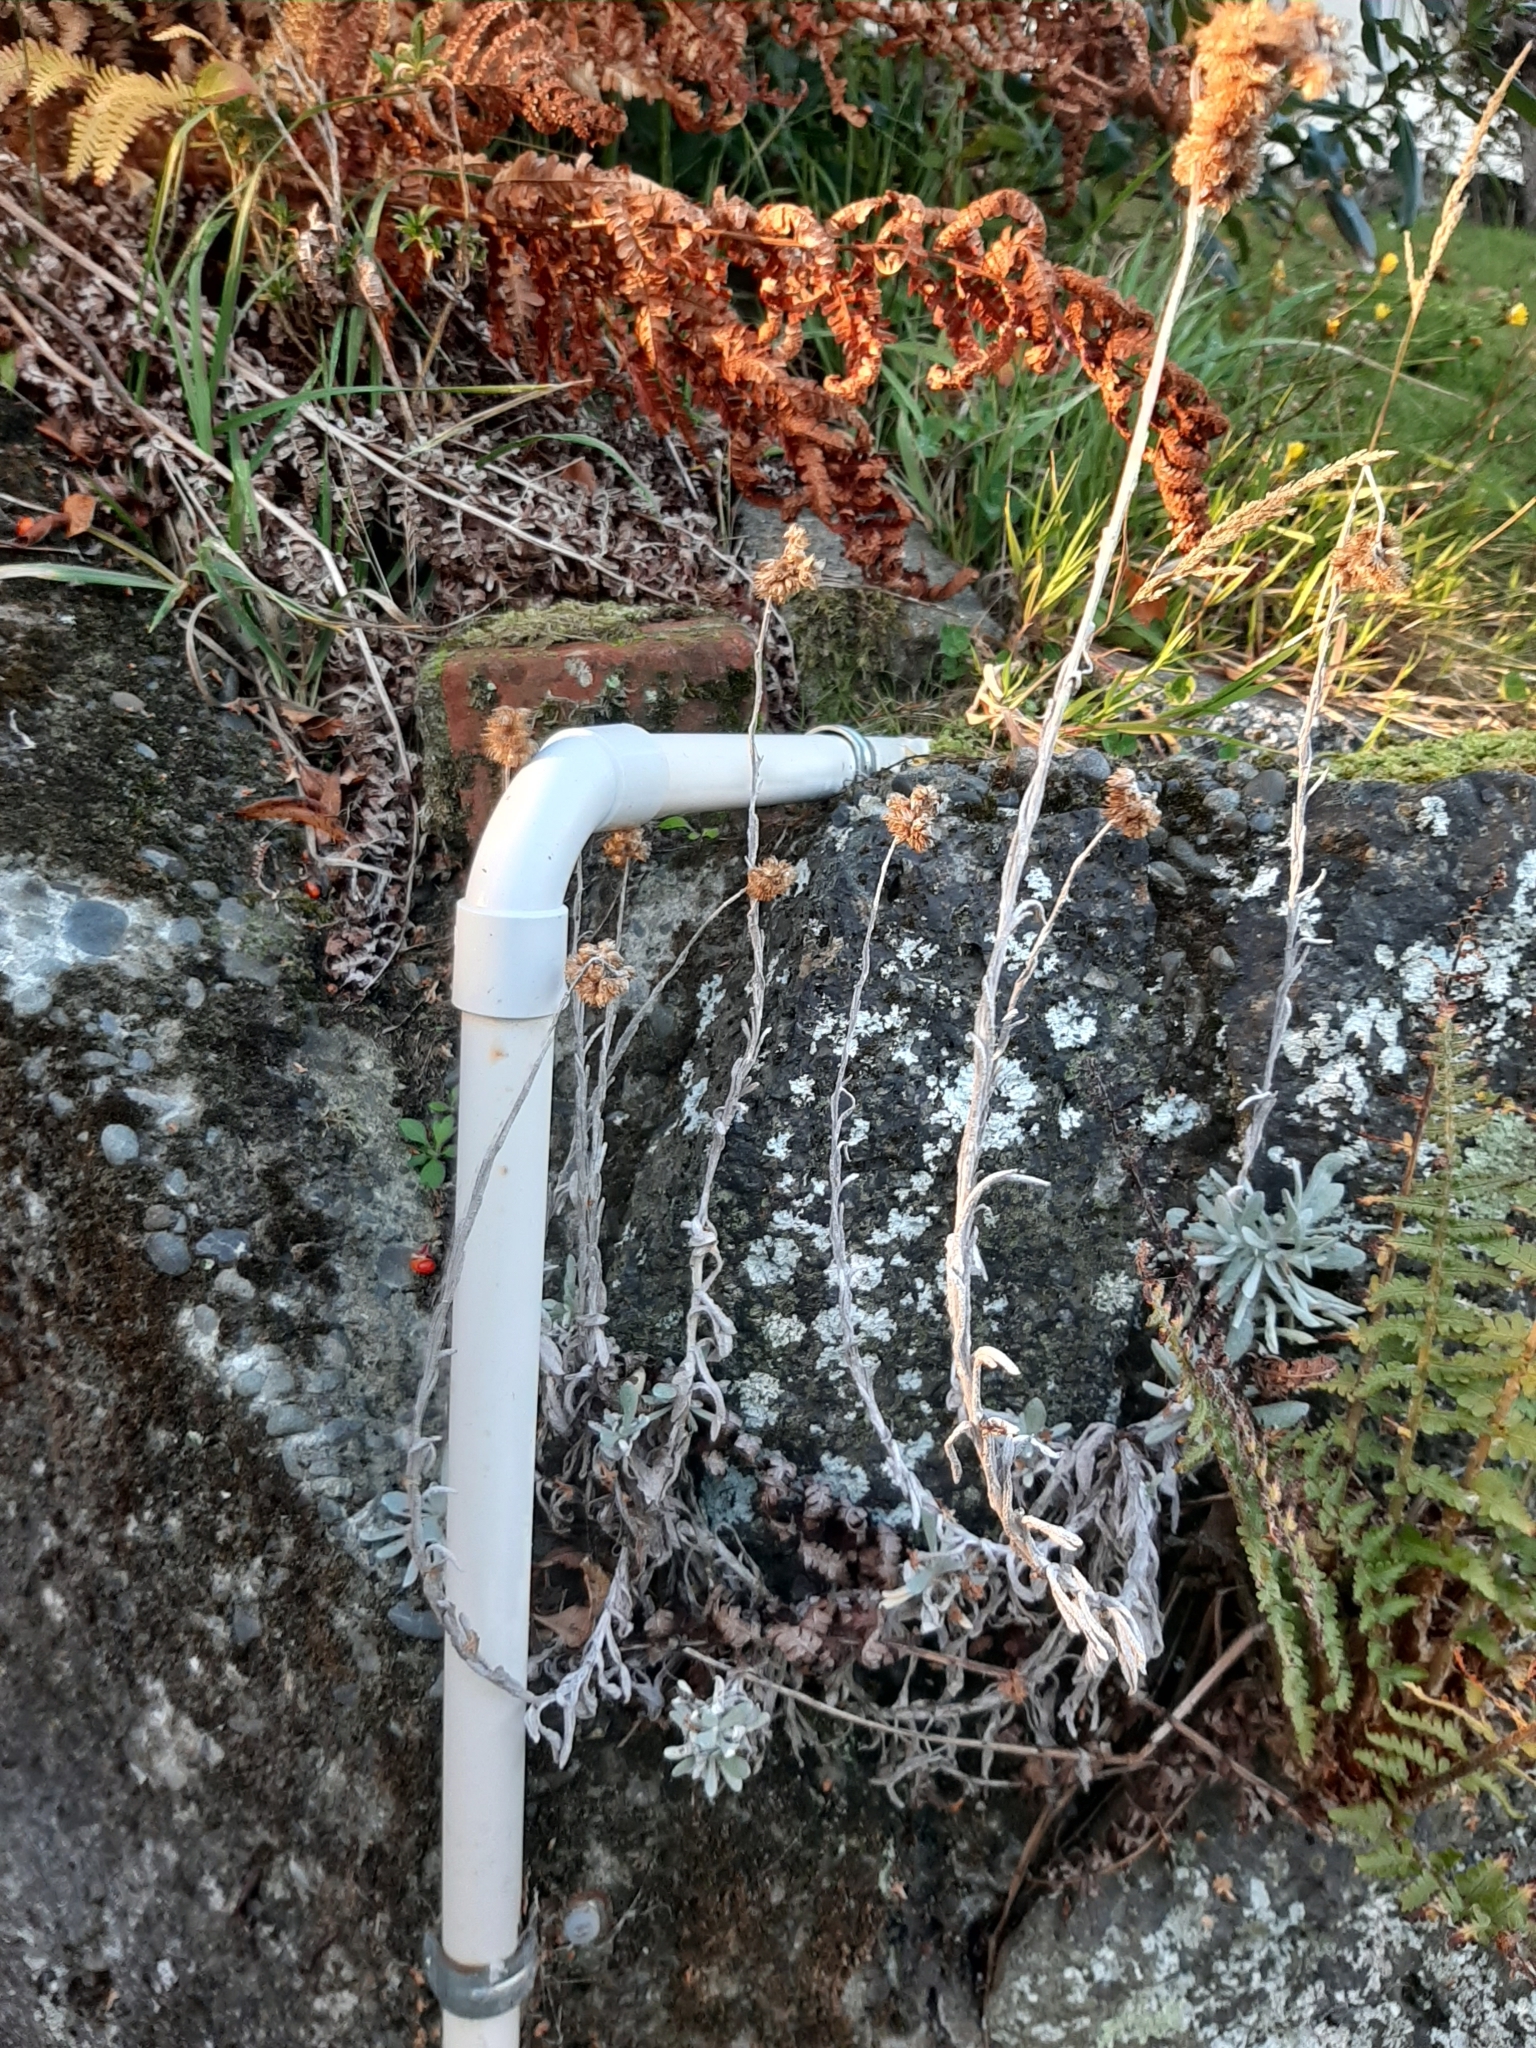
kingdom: Plantae
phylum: Tracheophyta
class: Magnoliopsida
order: Asterales
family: Asteraceae
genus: Helichrysum
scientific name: Helichrysum luteoalbum
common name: Daisy
